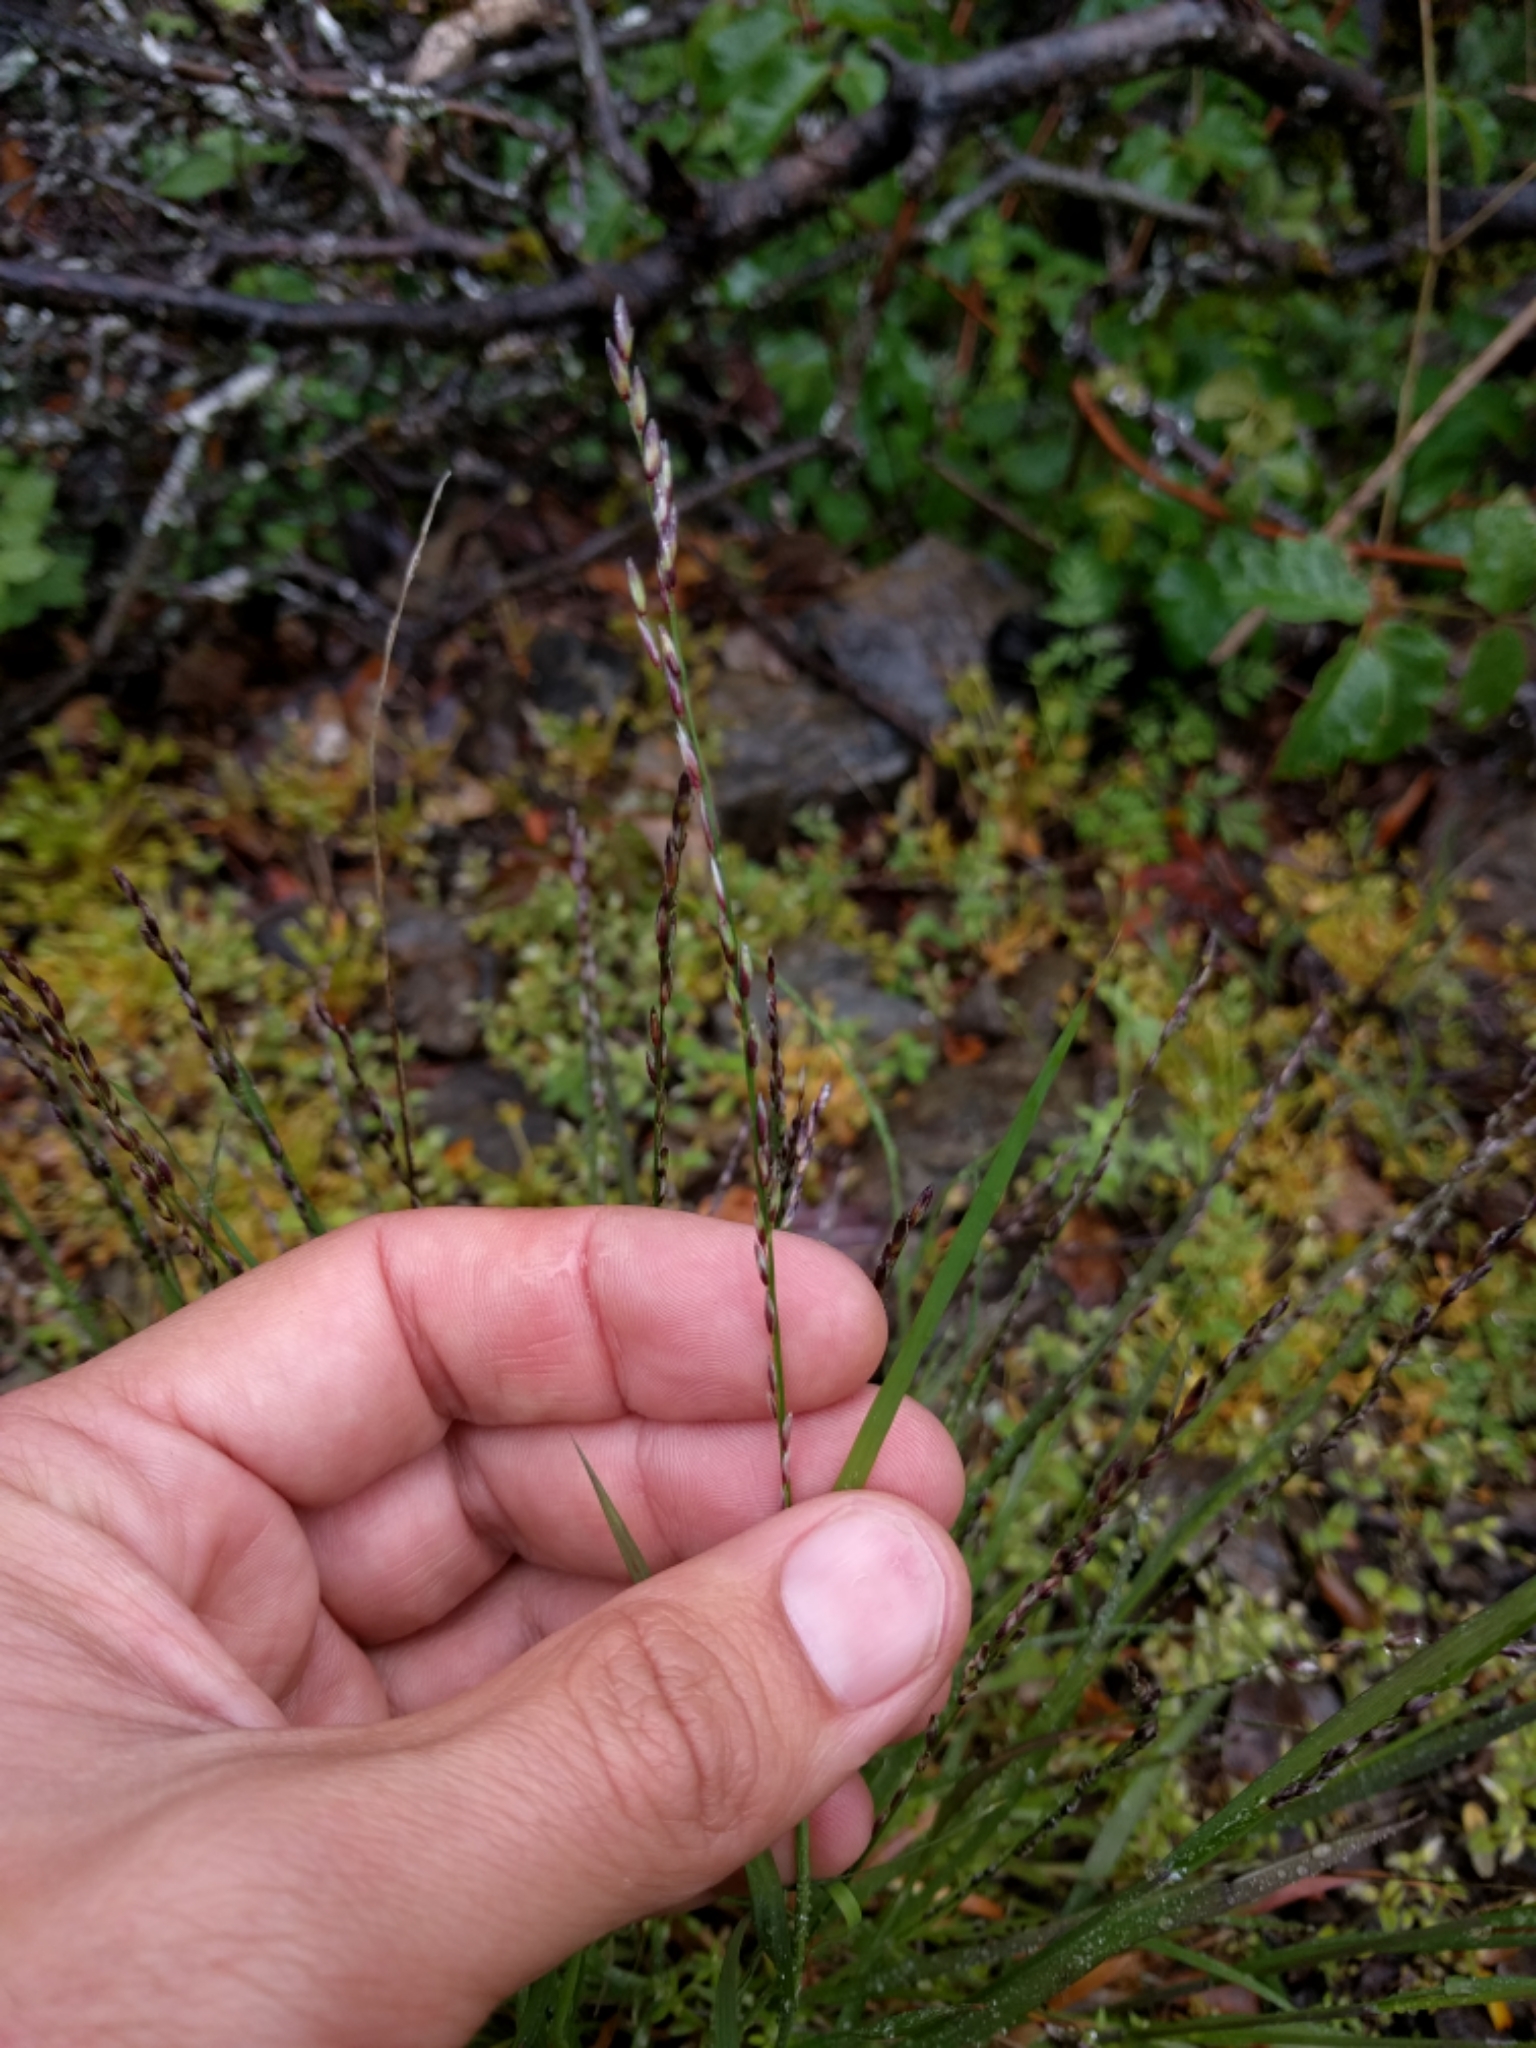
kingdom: Plantae
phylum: Tracheophyta
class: Liliopsida
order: Poales
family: Poaceae
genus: Melica
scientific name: Melica torreyana
